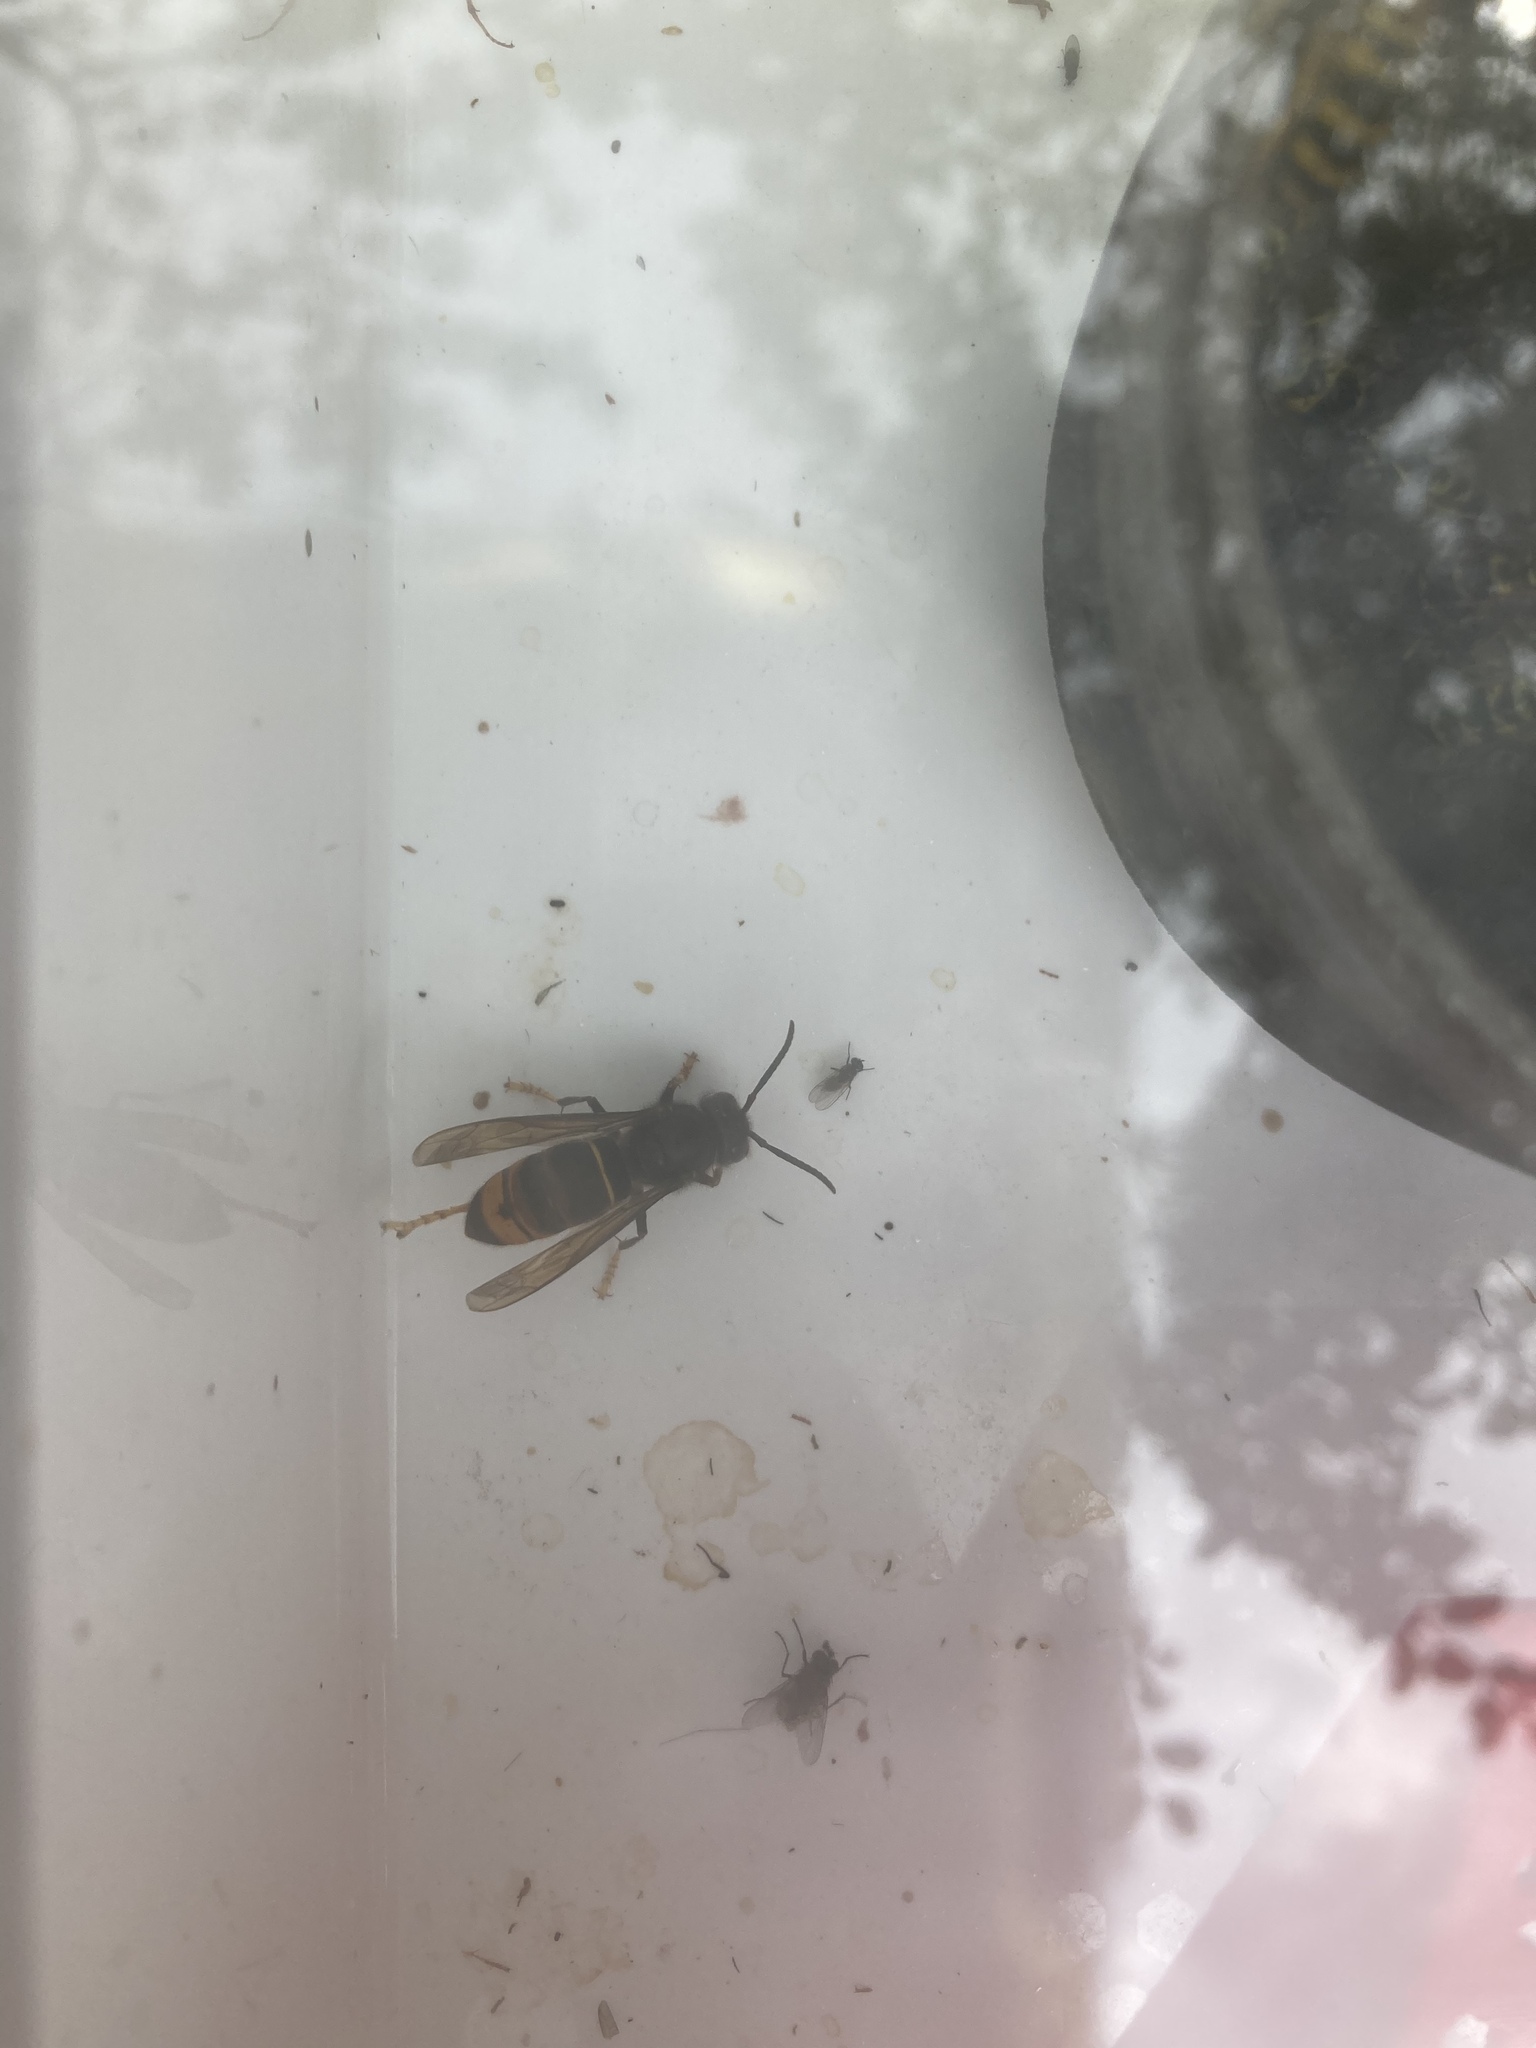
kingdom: Animalia
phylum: Arthropoda
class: Insecta
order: Hymenoptera
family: Vespidae
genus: Vespa
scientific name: Vespa velutina
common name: Asian hornet
